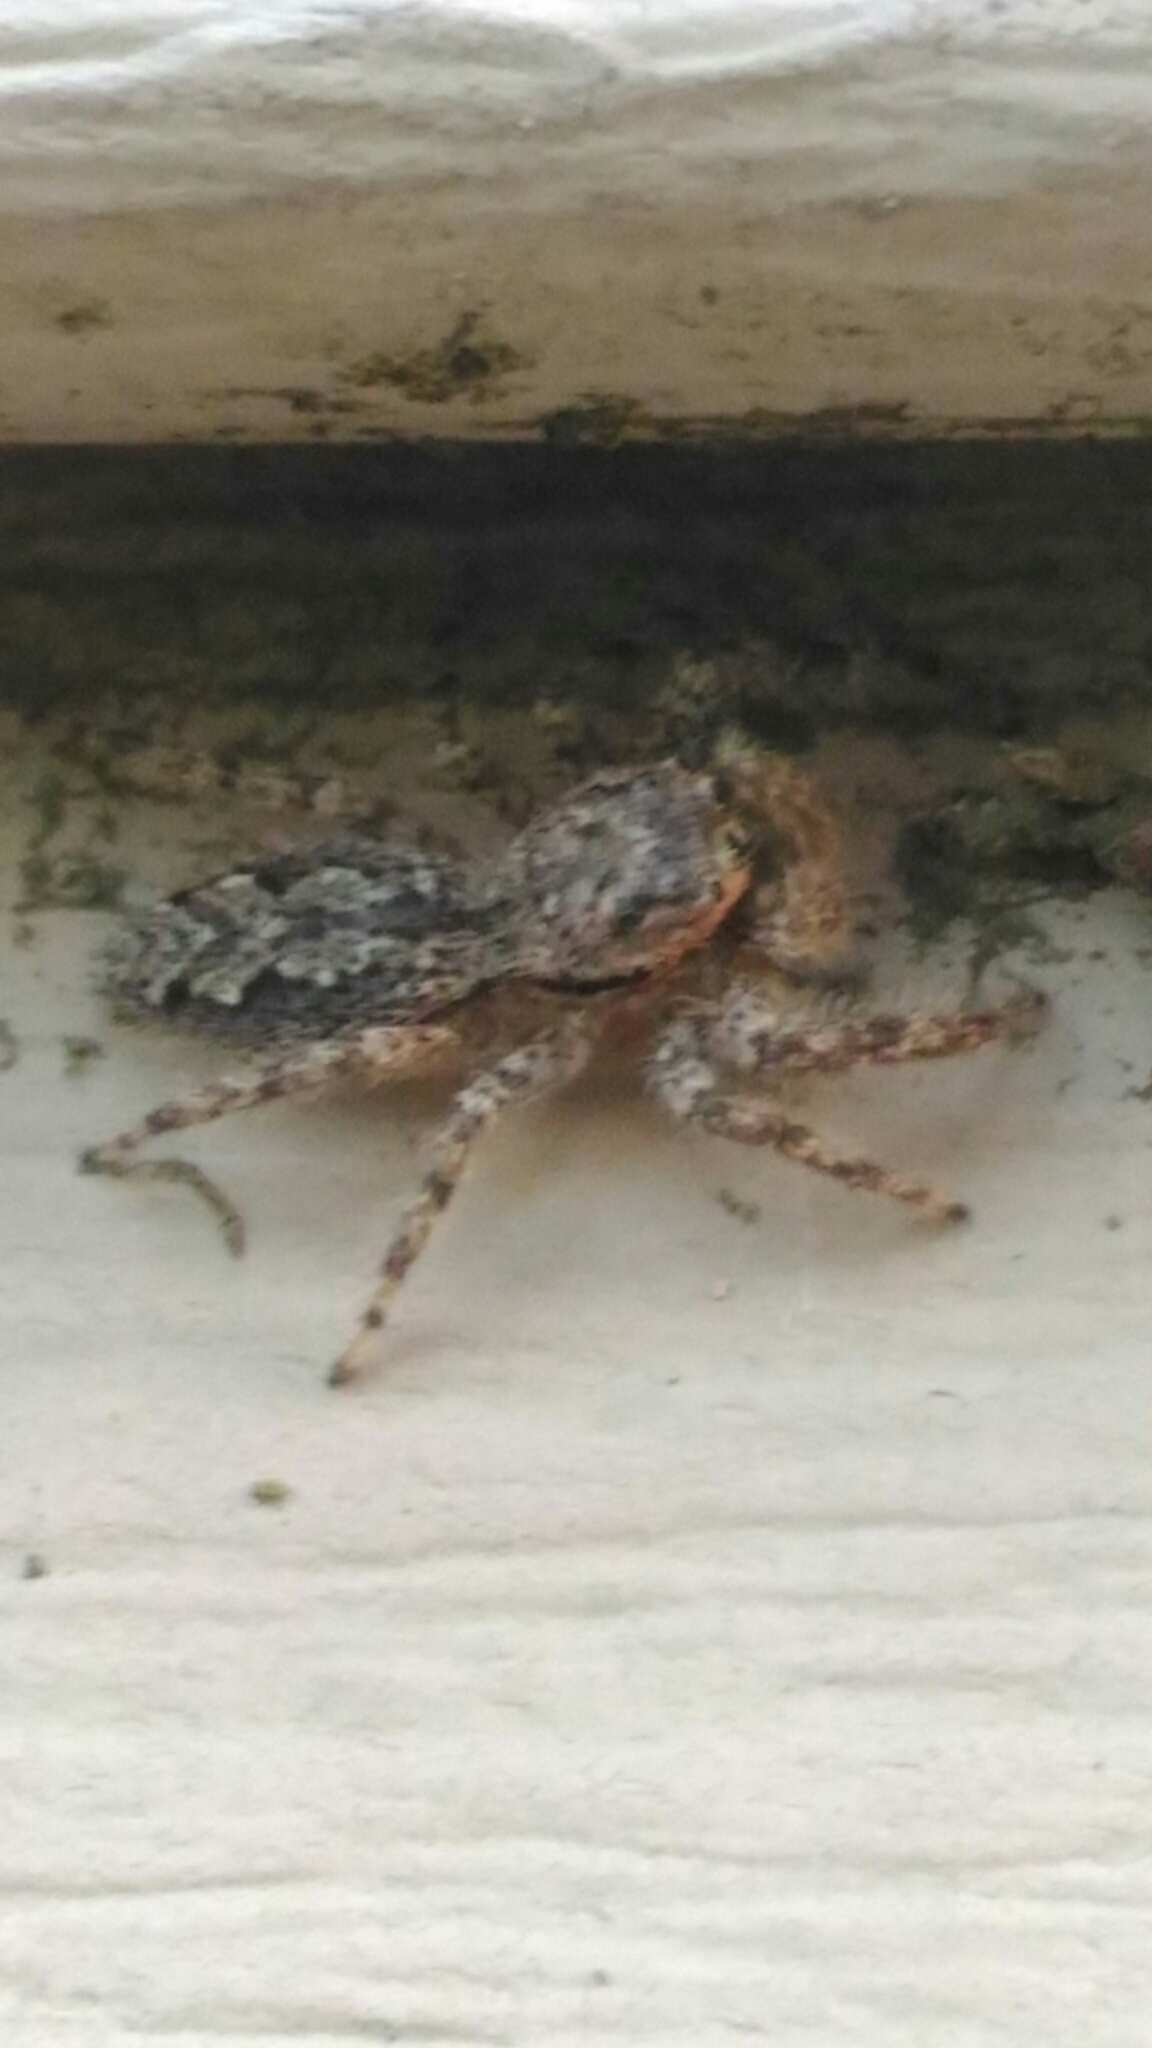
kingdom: Animalia
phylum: Arthropoda
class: Arachnida
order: Araneae
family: Salticidae
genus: Platycryptus
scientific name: Platycryptus undatus
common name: Tan jumping spider
